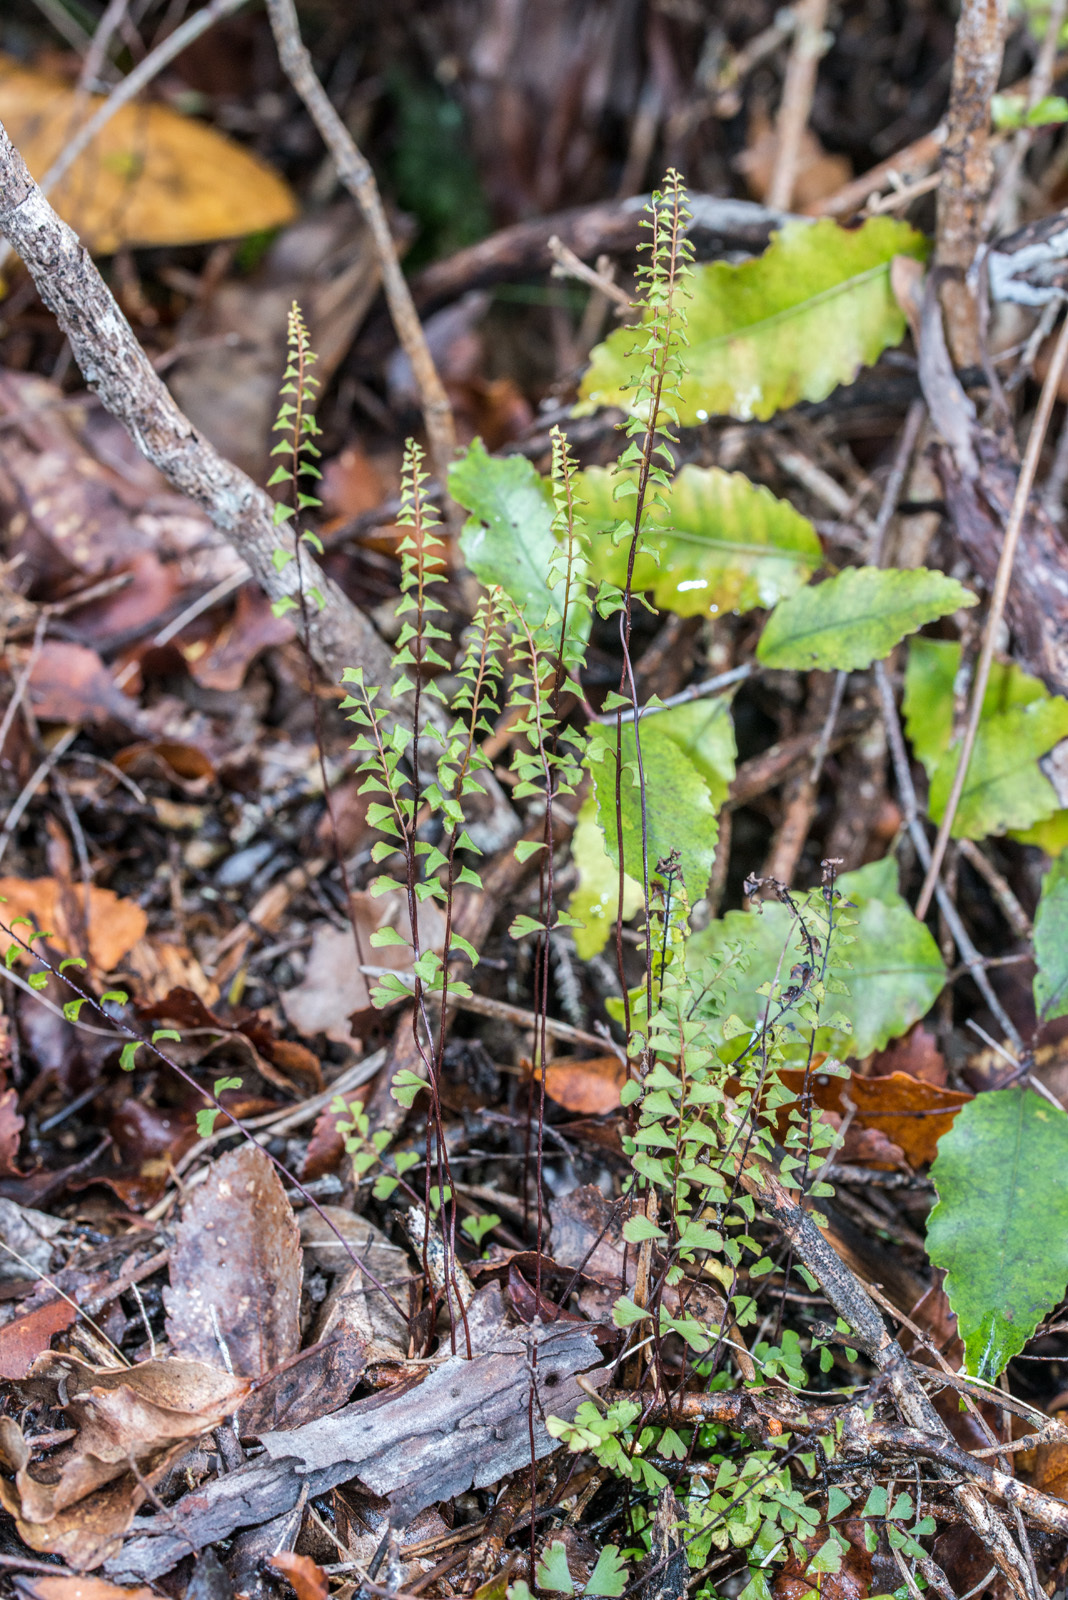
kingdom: Plantae
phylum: Tracheophyta
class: Polypodiopsida
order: Polypodiales
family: Lindsaeaceae
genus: Lindsaea
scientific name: Lindsaea linearis
